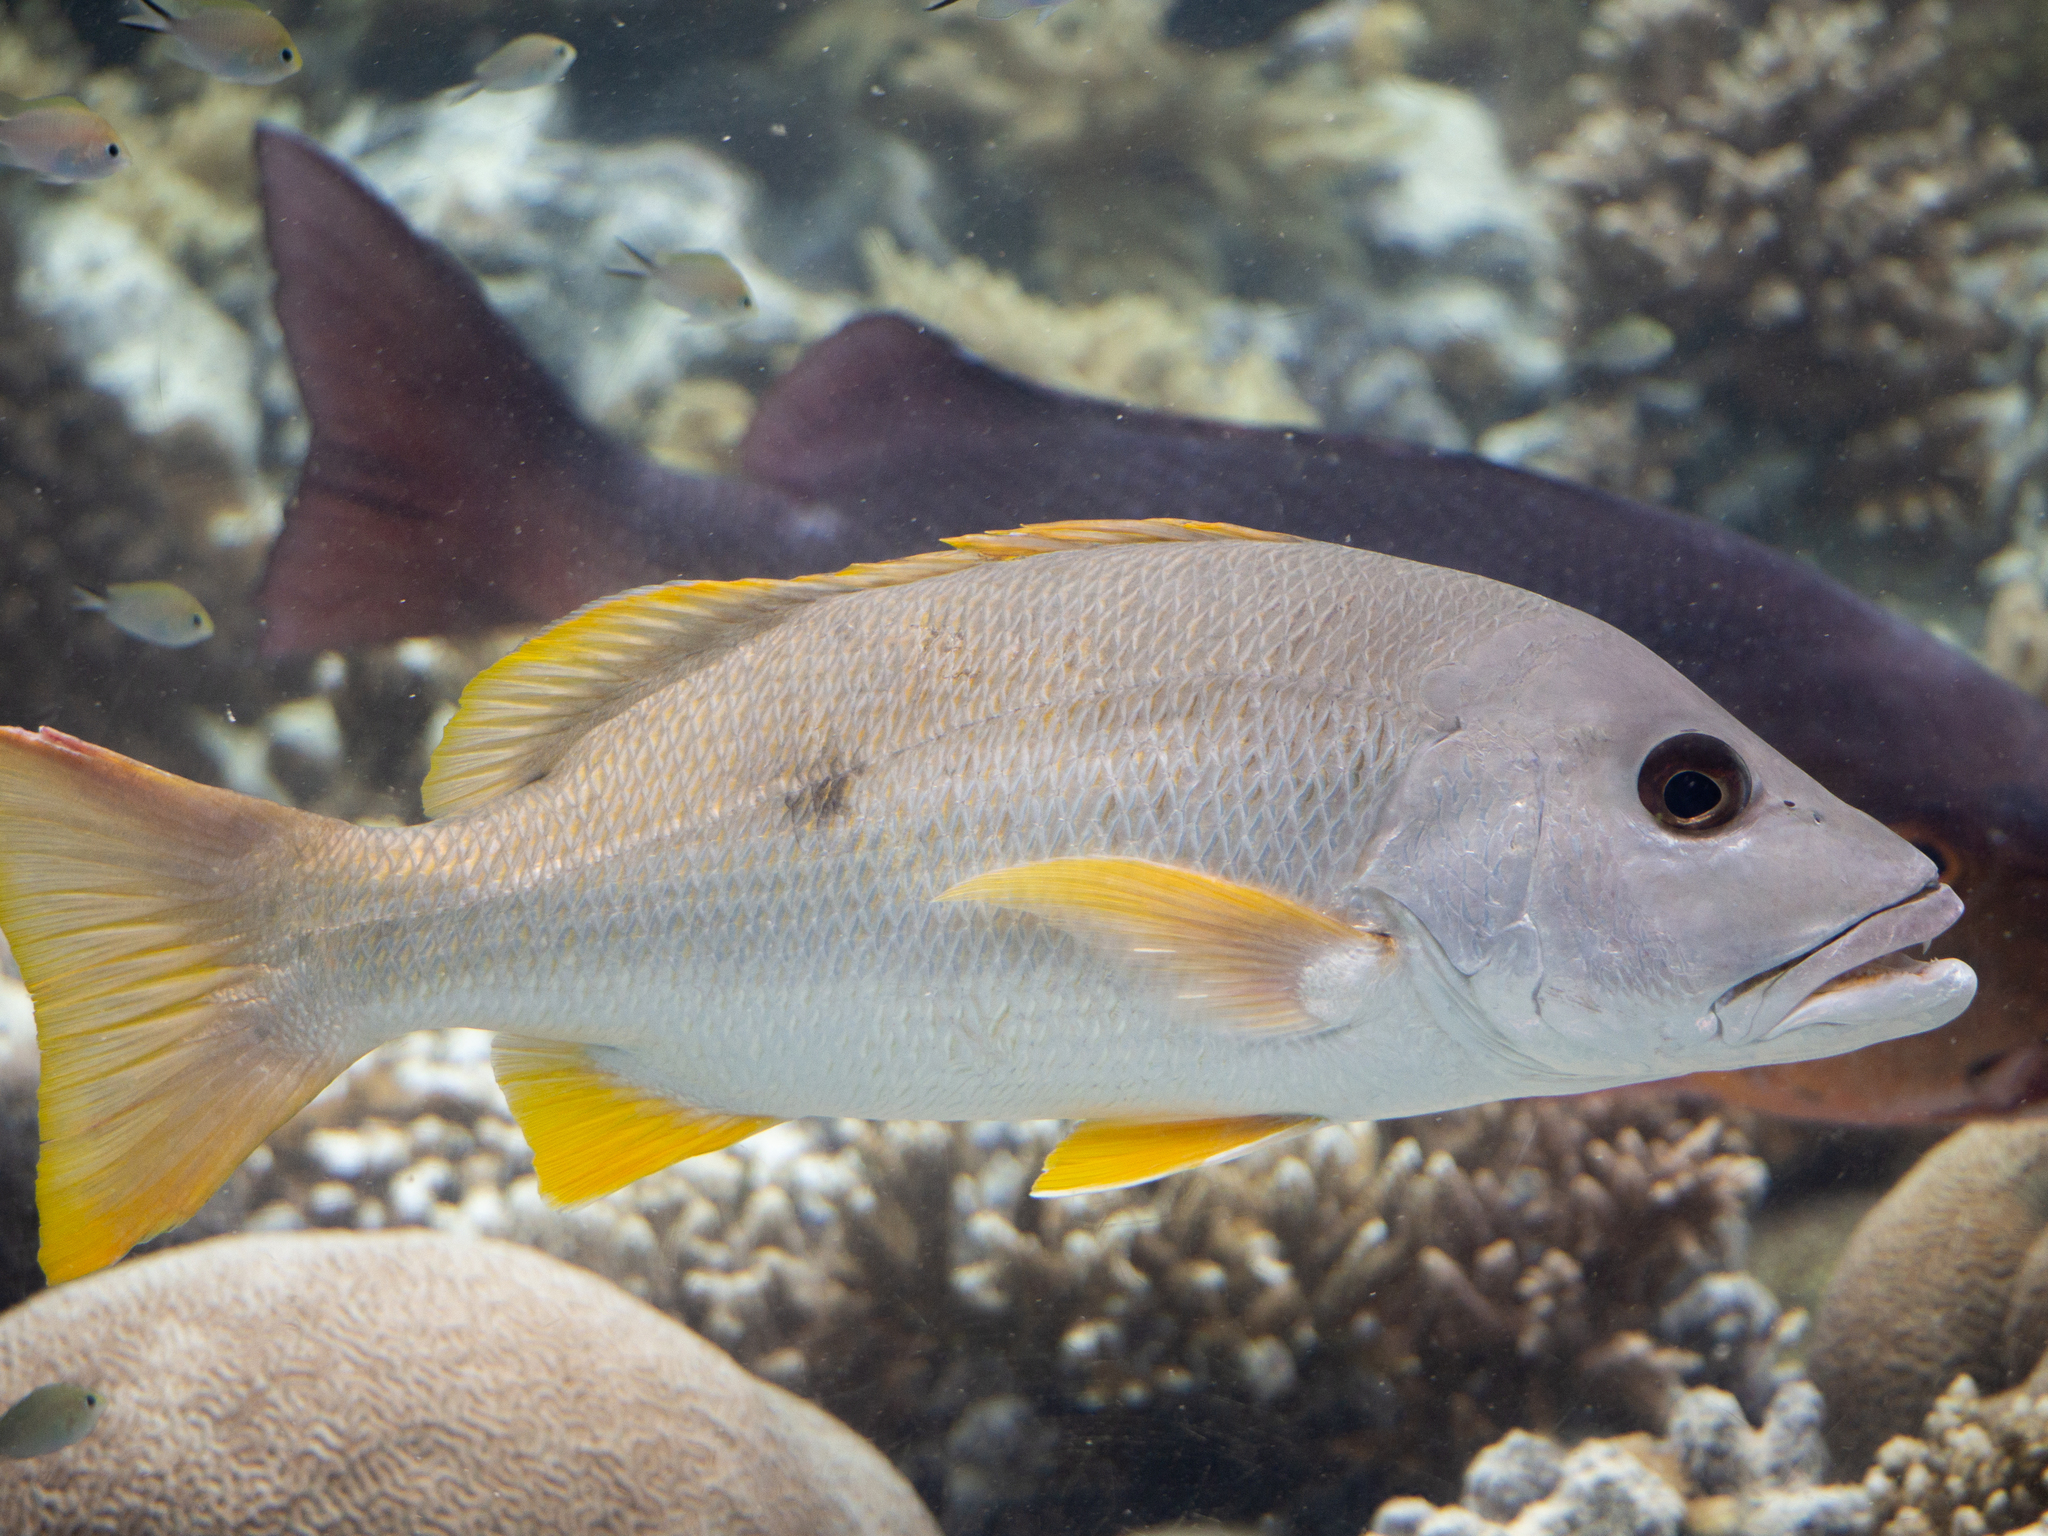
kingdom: Animalia
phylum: Chordata
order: Perciformes
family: Lutjanidae
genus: Lutjanus
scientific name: Lutjanus monostigma
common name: Onespot snapper
